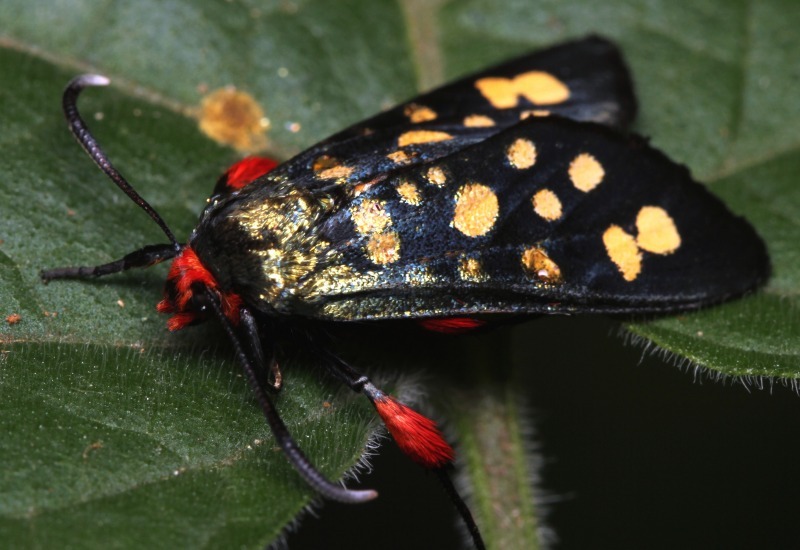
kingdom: Animalia
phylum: Arthropoda
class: Insecta
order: Lepidoptera
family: Thyrididae
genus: Arniocera
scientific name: Arniocera auriguttata
